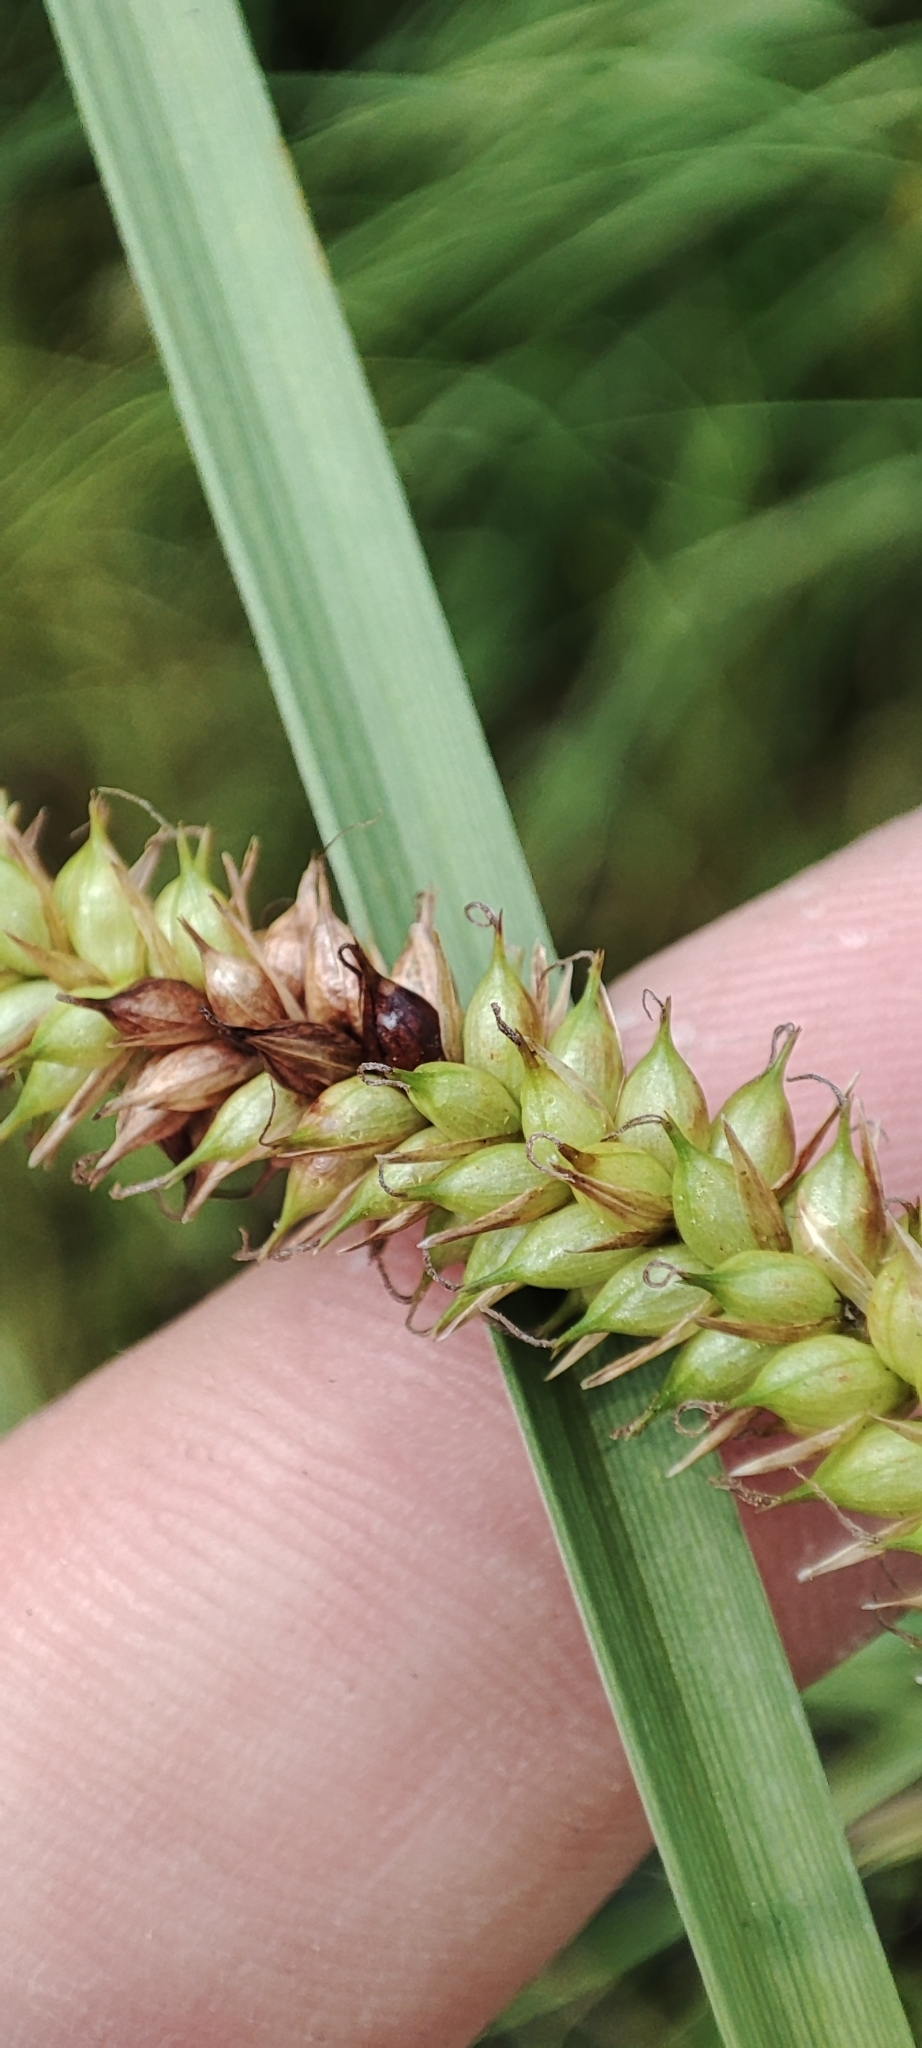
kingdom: Plantae
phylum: Tracheophyta
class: Liliopsida
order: Poales
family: Cyperaceae
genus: Carex
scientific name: Carex rostrata
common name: Bottle sedge
